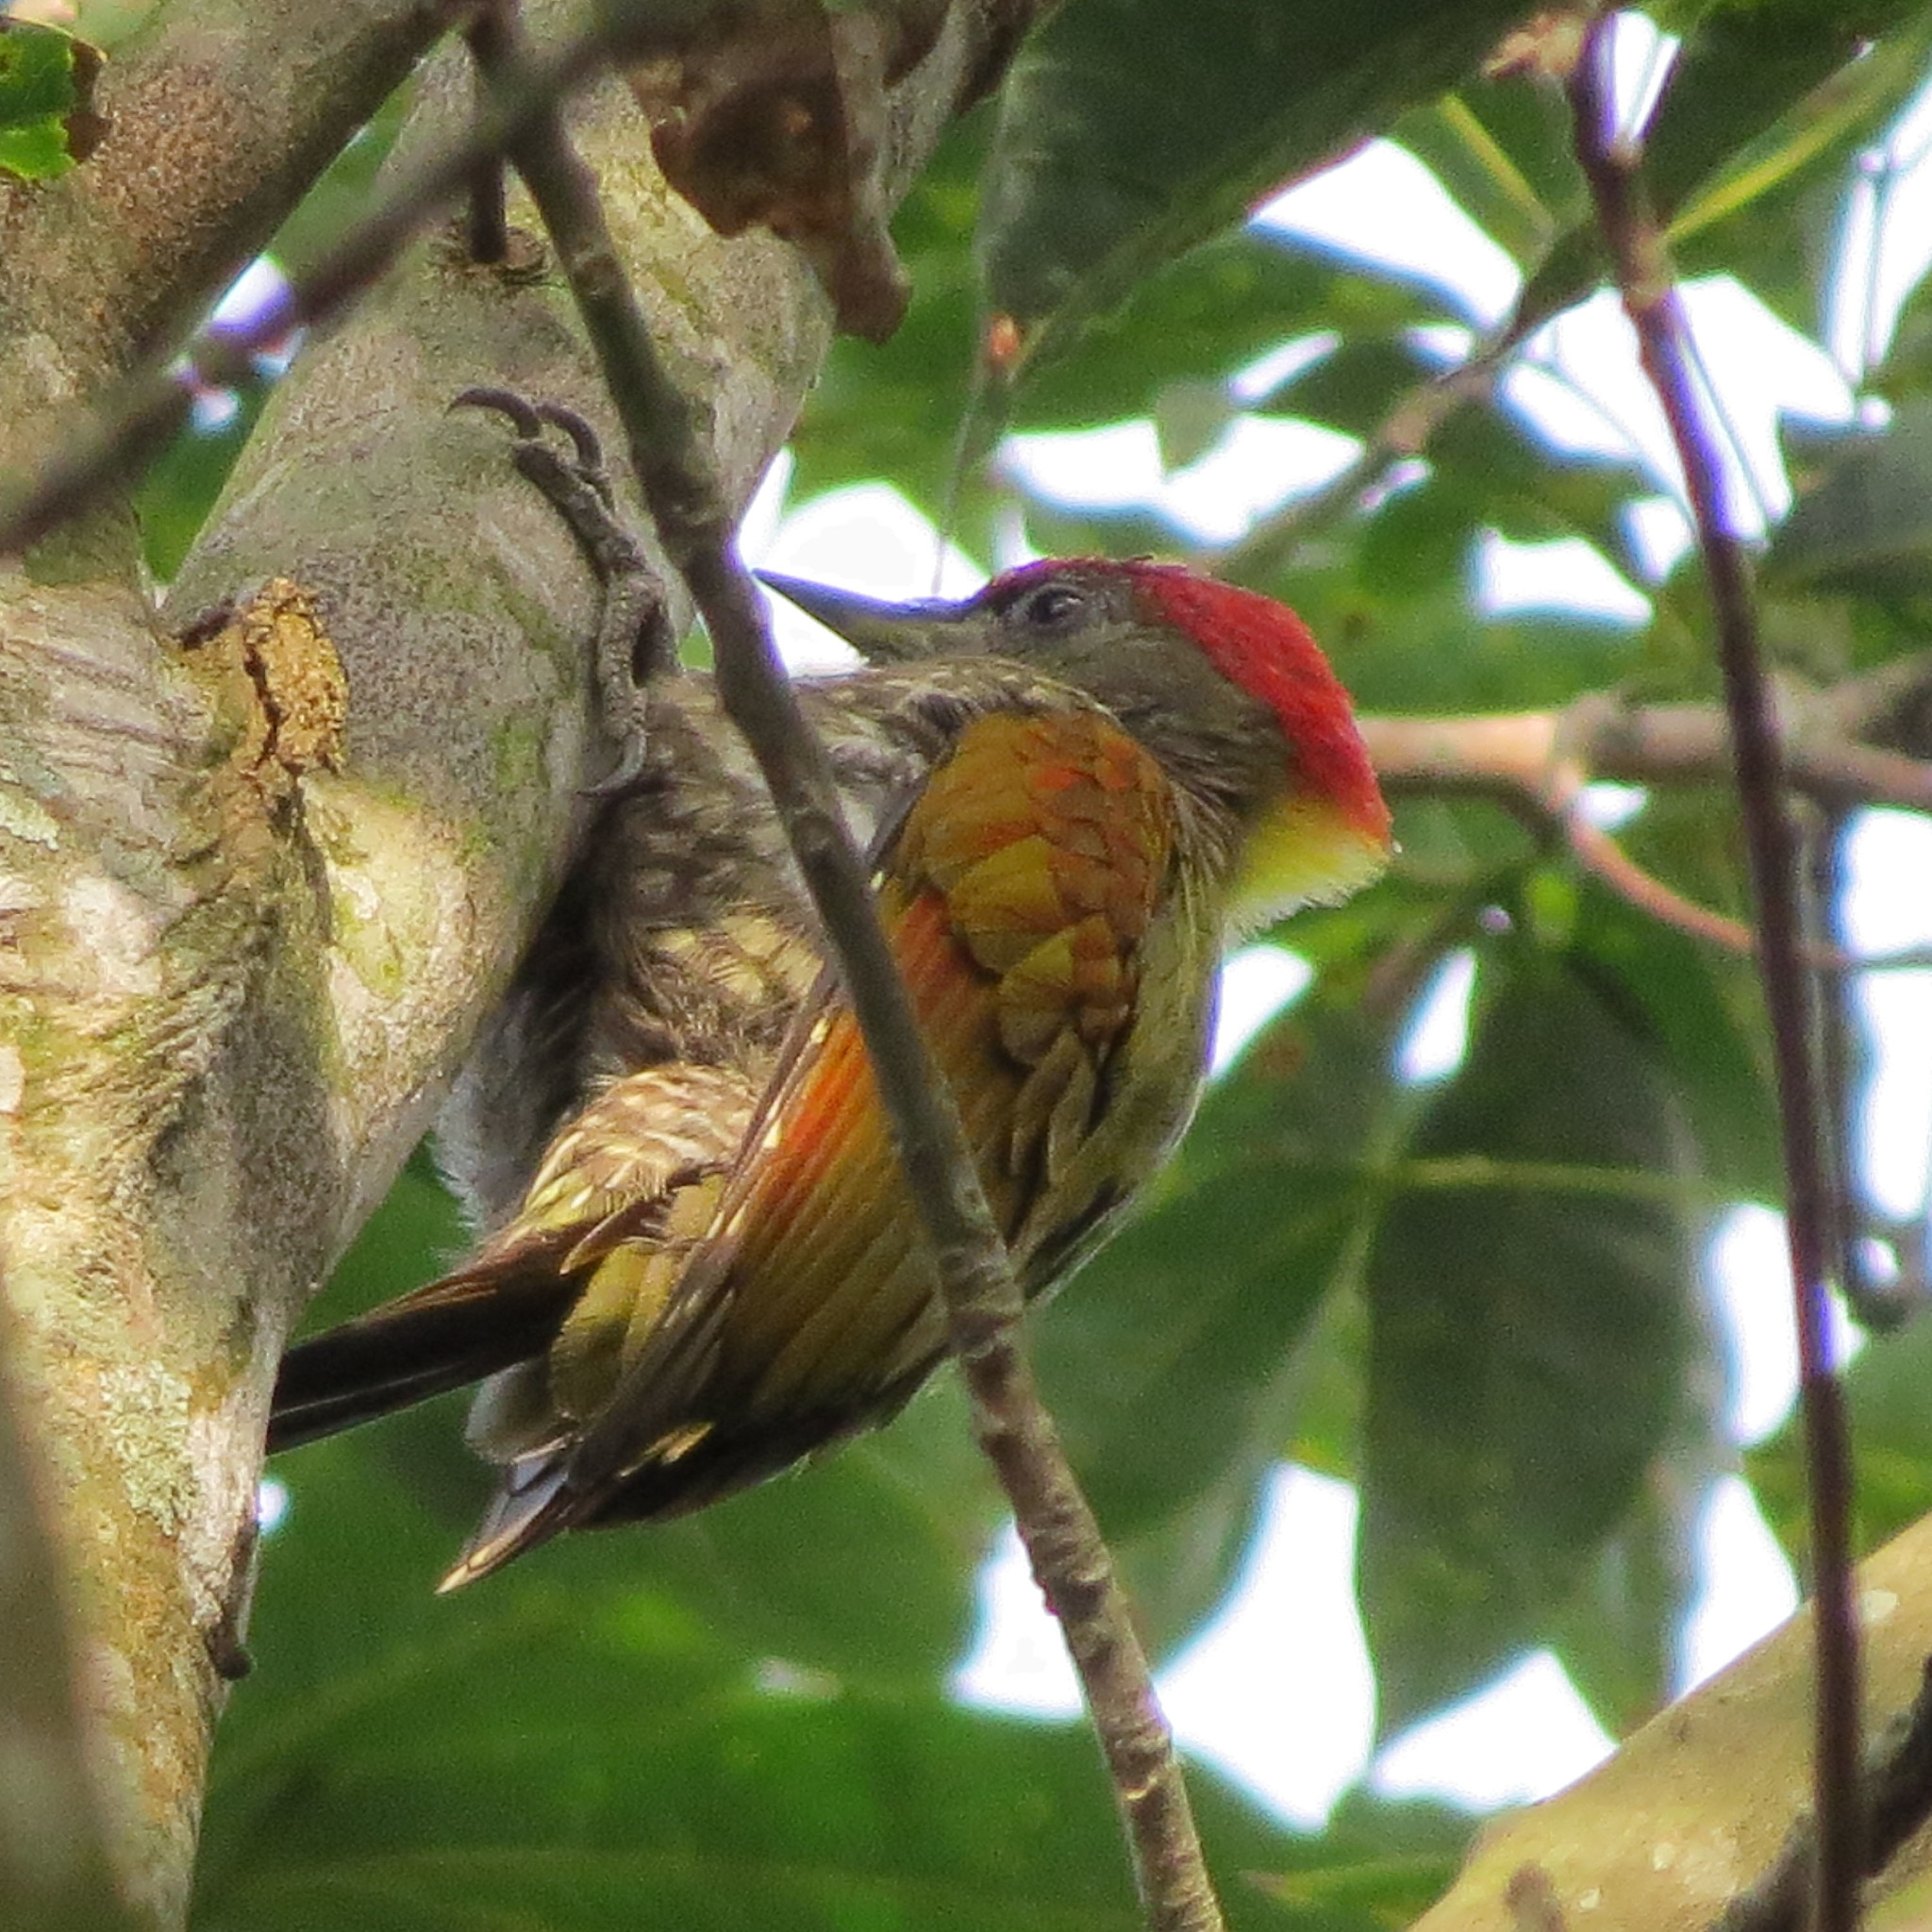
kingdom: Animalia
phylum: Chordata
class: Aves
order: Piciformes
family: Picidae
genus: Picus
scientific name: Picus chlorolophus
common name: Lesser yellownape
